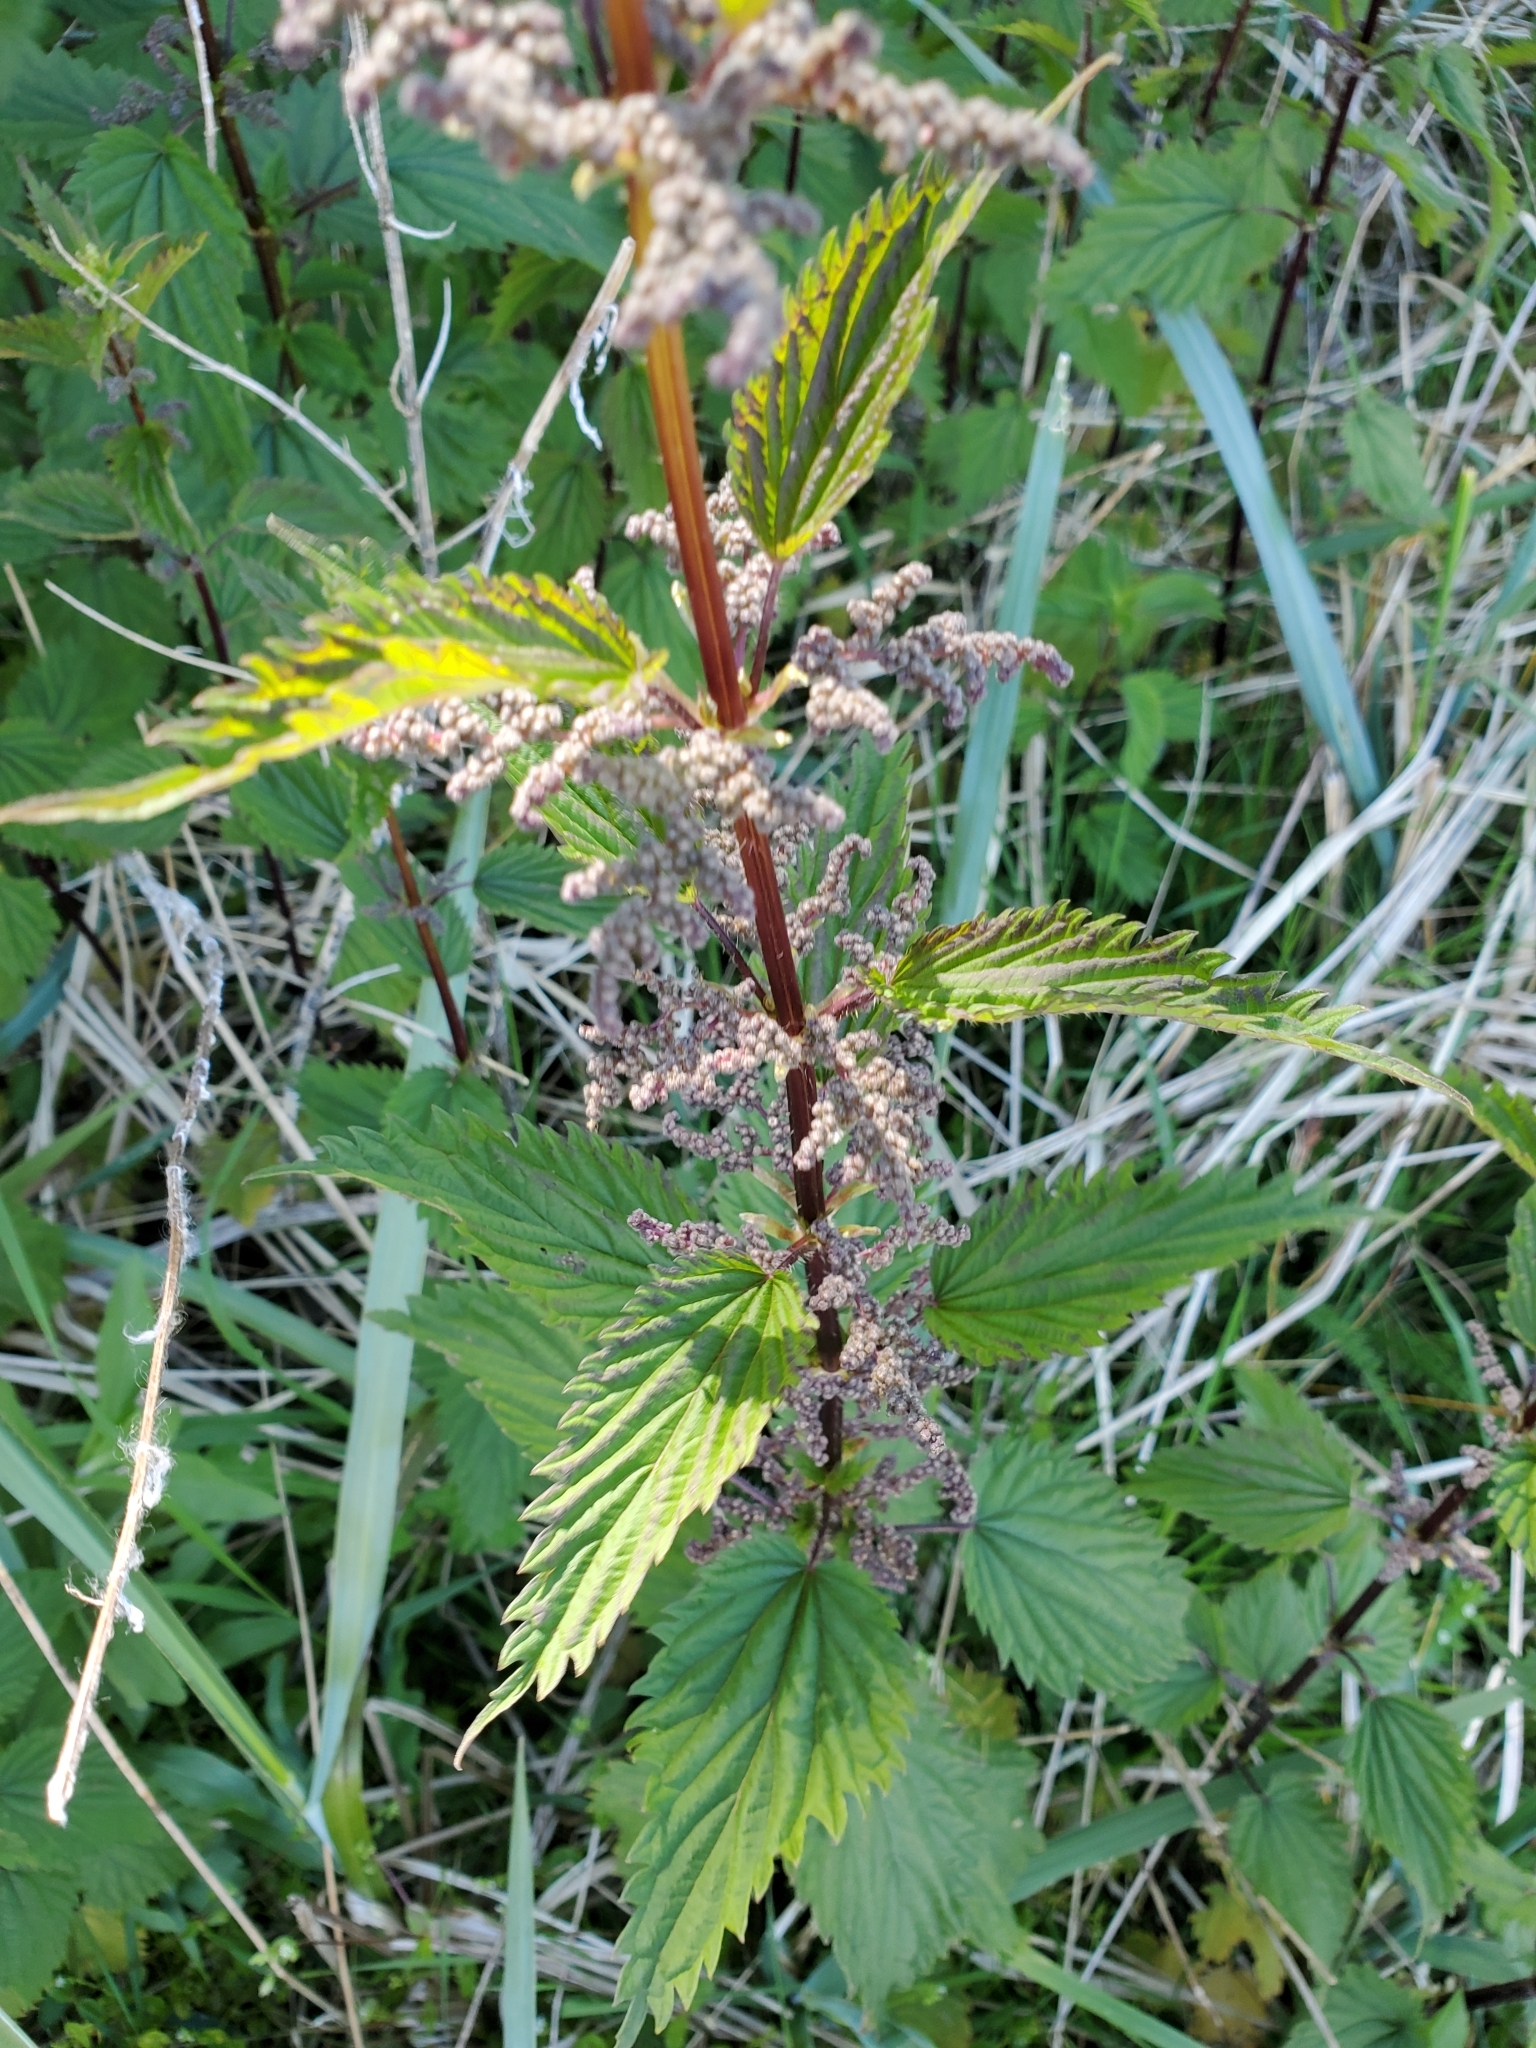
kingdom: Plantae
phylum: Tracheophyta
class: Magnoliopsida
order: Rosales
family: Urticaceae
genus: Urtica
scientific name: Urtica dioica
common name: Common nettle
